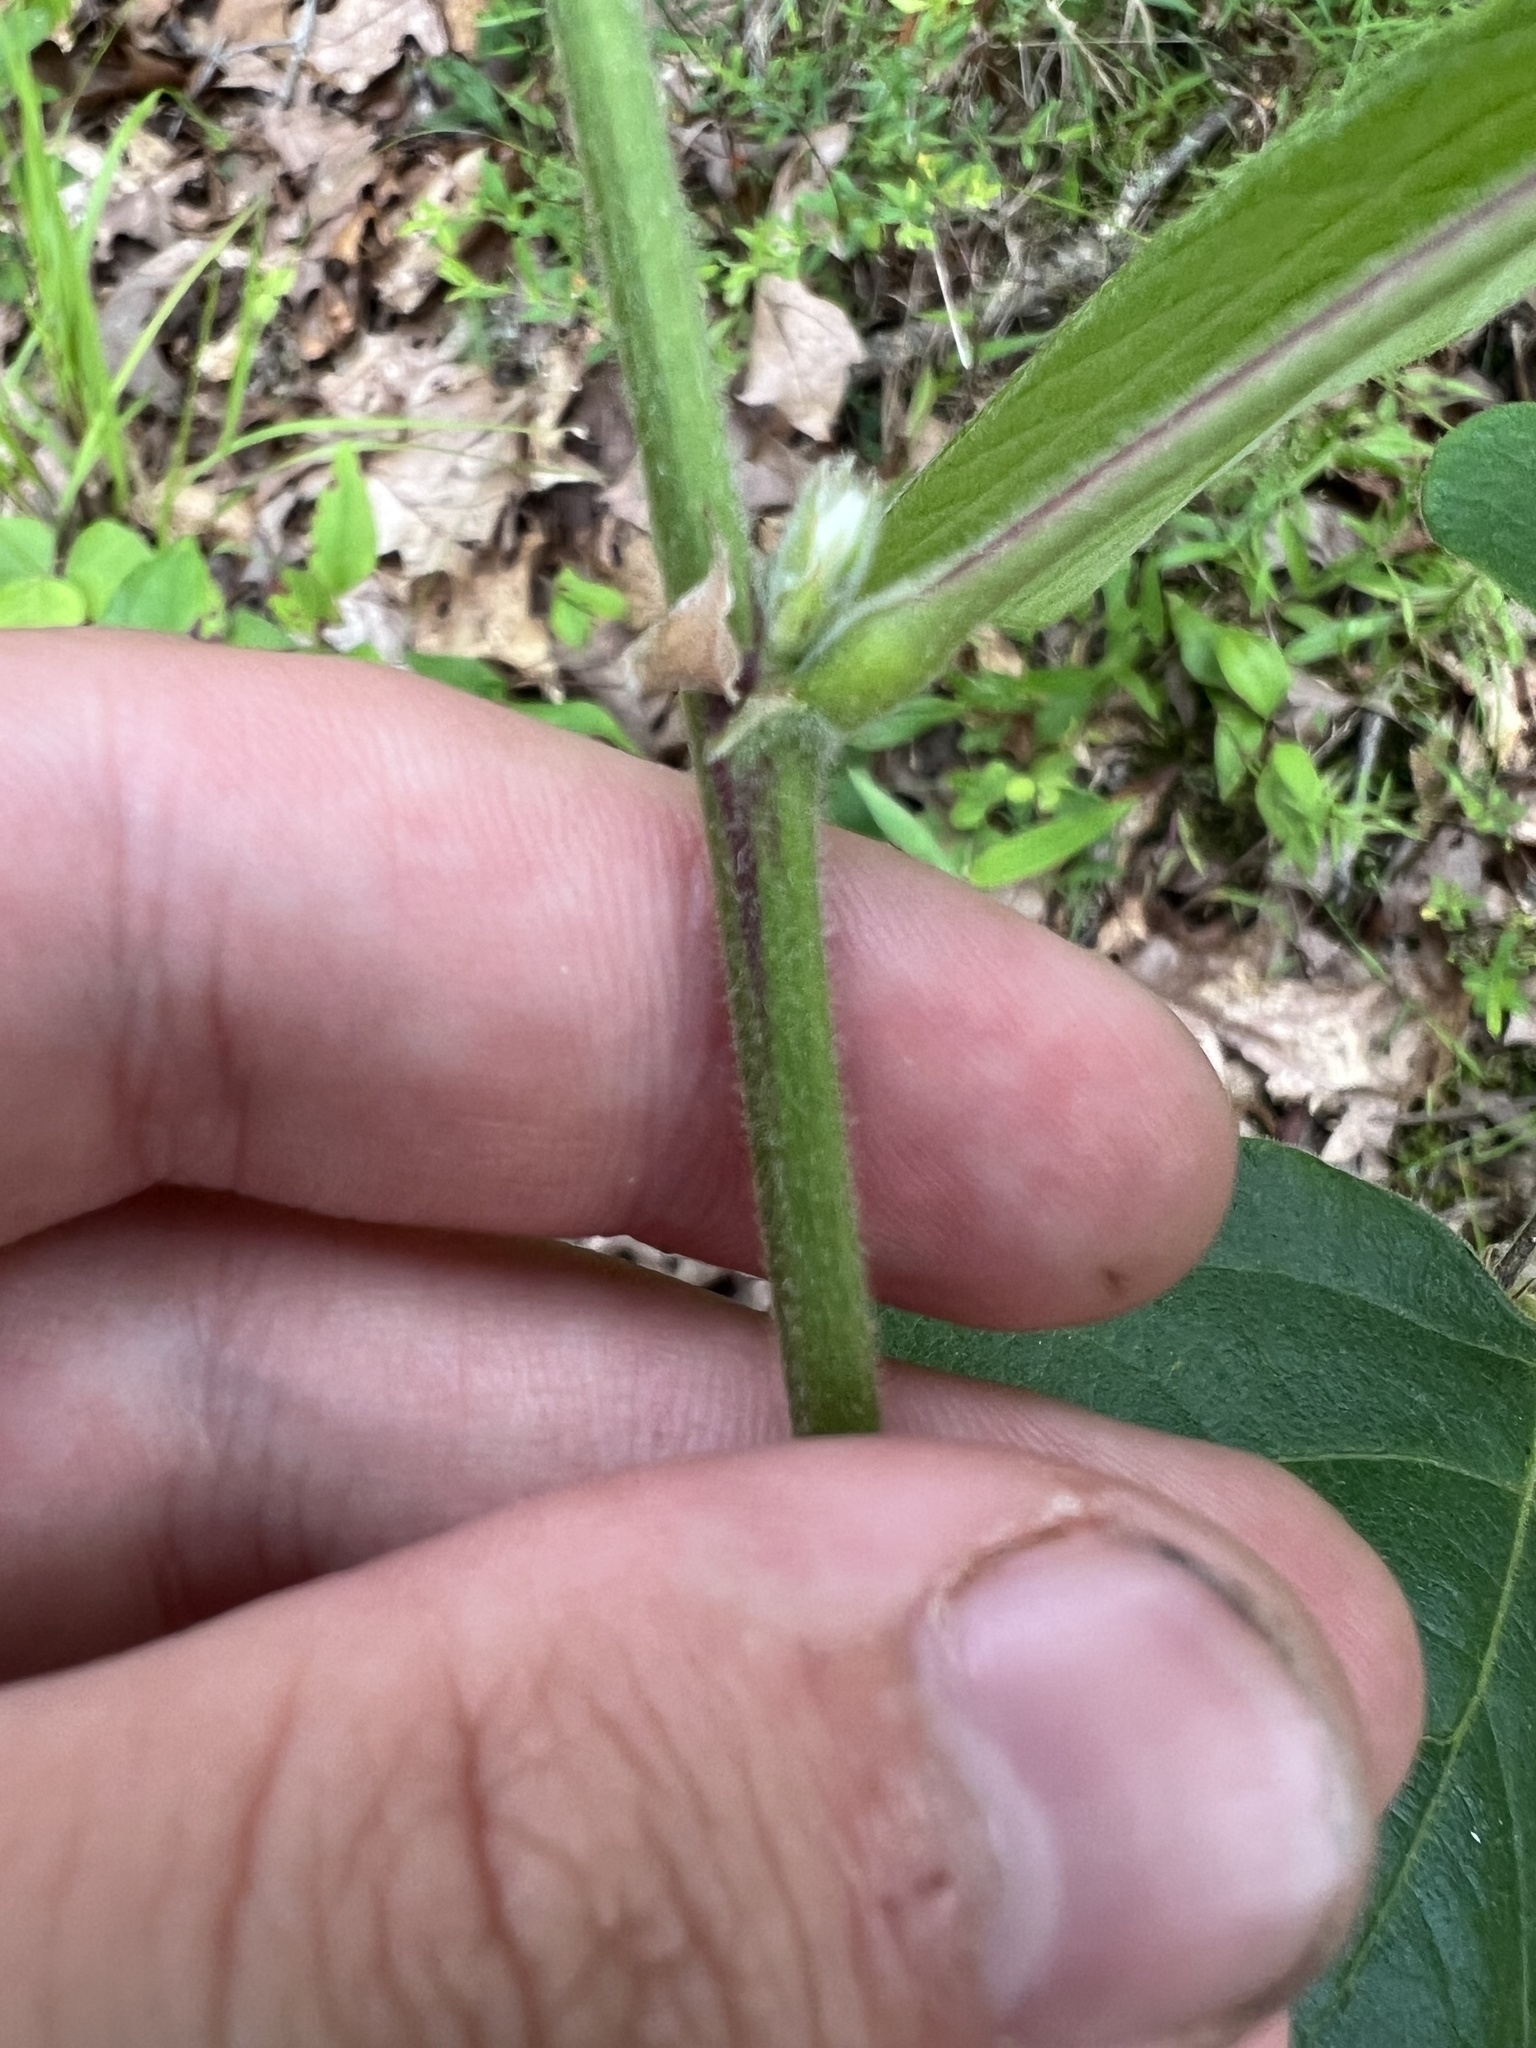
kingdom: Plantae
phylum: Tracheophyta
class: Magnoliopsida
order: Fabales
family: Fabaceae
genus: Desmodium
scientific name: Desmodium nuttallii
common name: Nuttall's tick trefoil
